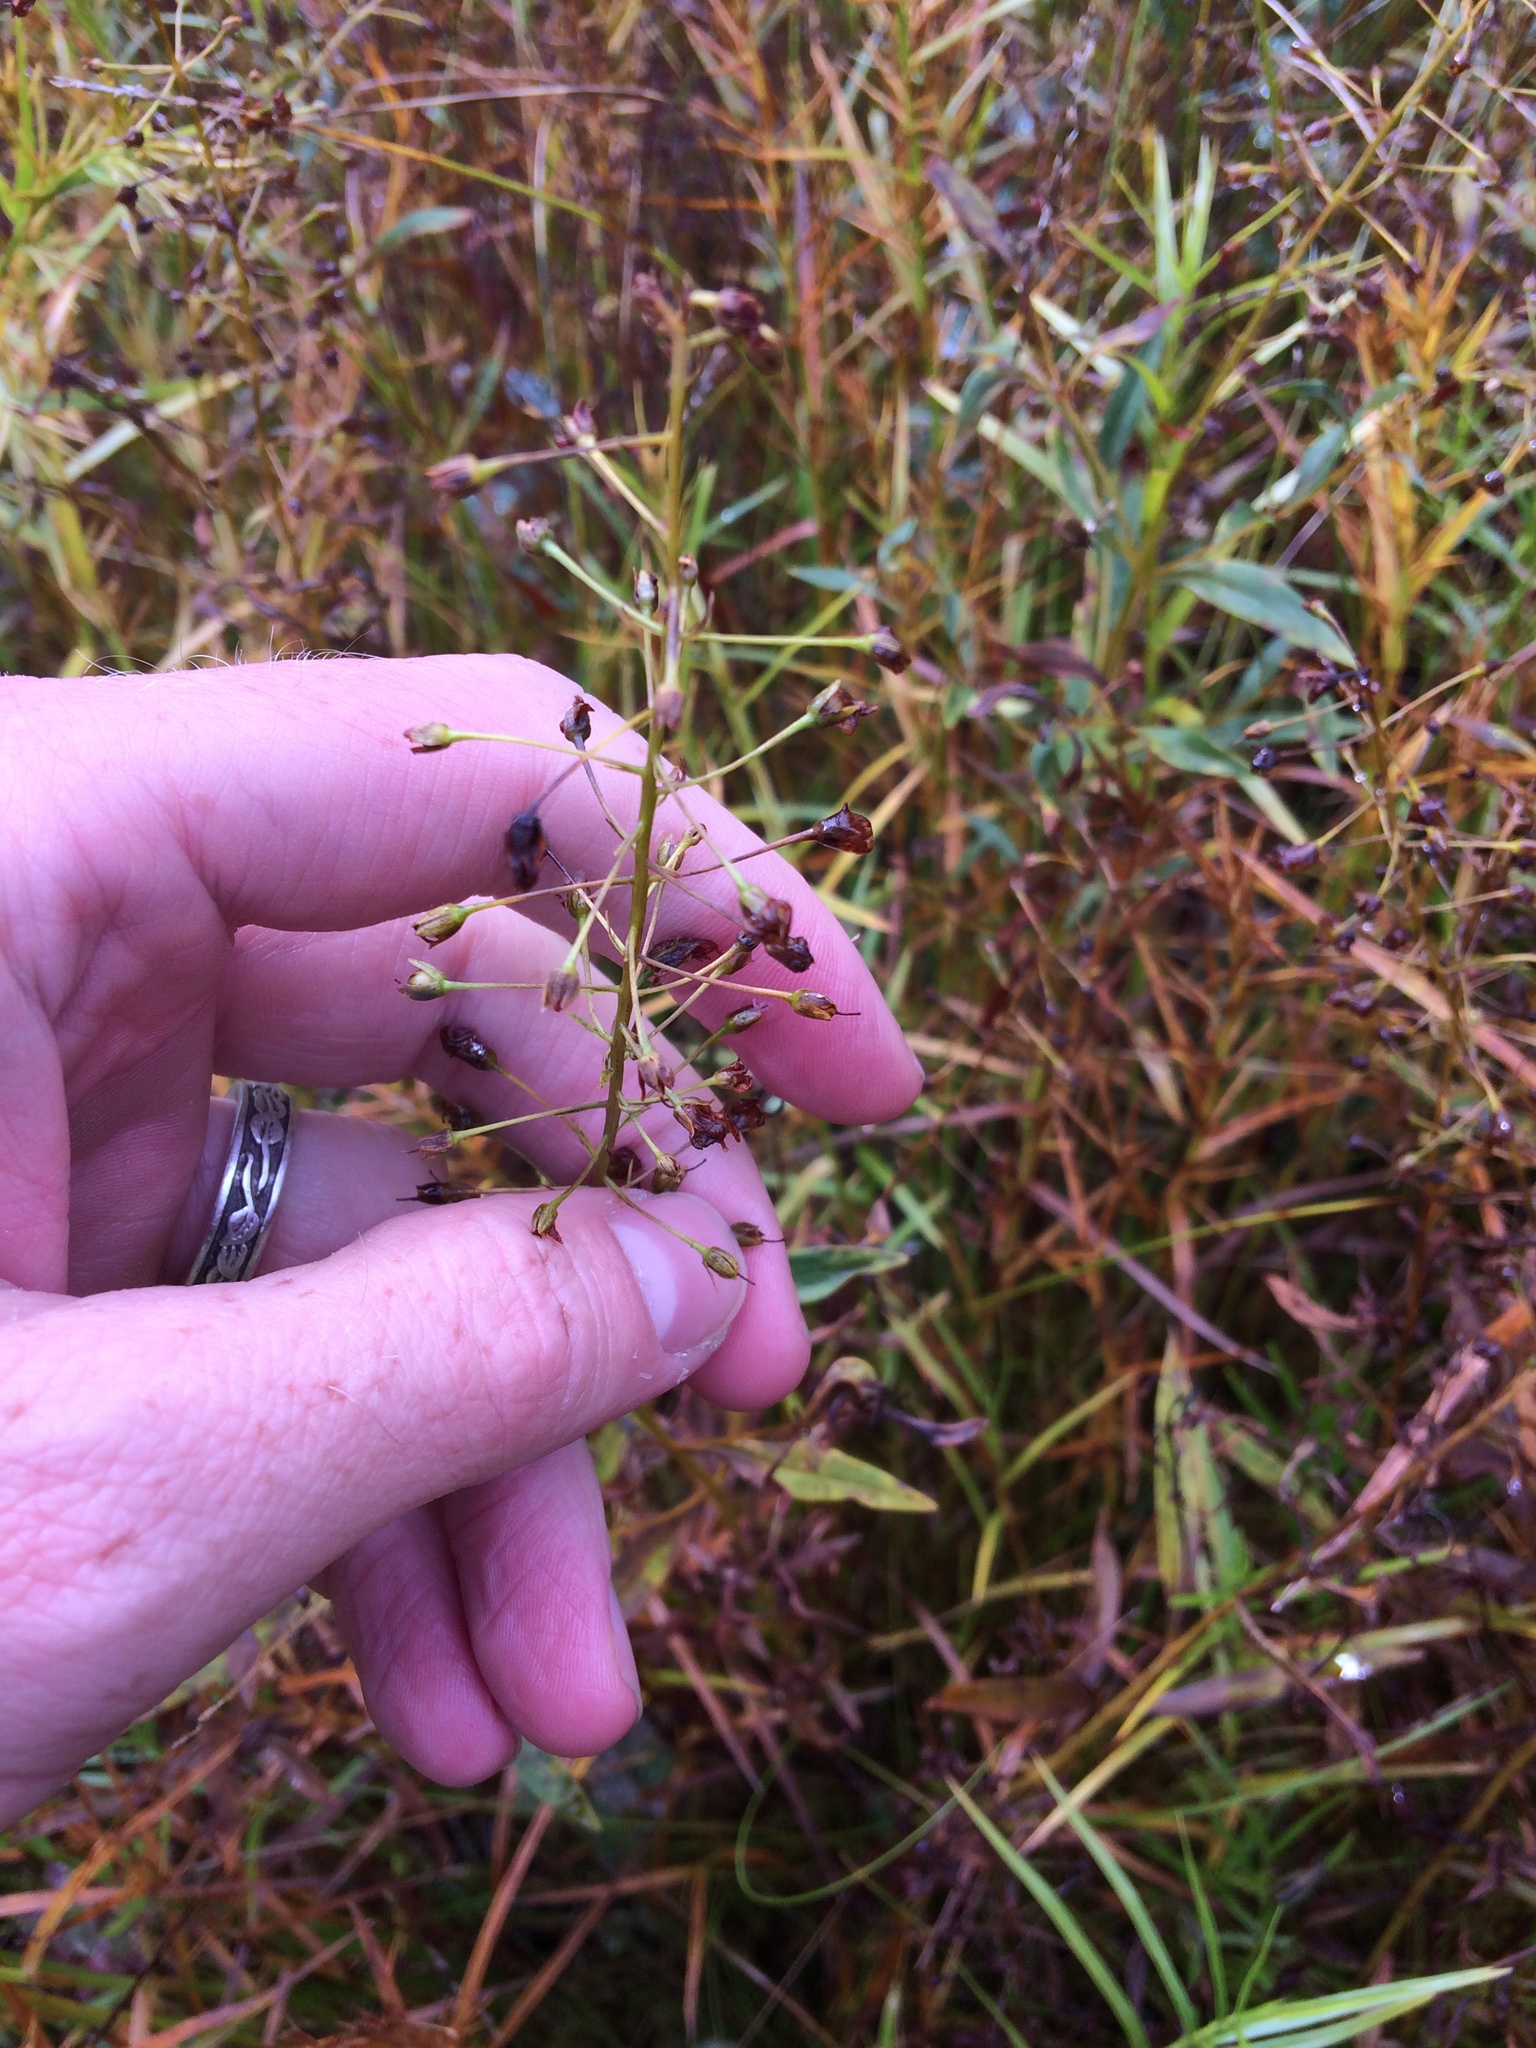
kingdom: Plantae
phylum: Tracheophyta
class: Magnoliopsida
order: Ericales
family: Primulaceae
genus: Lysimachia
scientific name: Lysimachia terrestris
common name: Lake loosestrife
